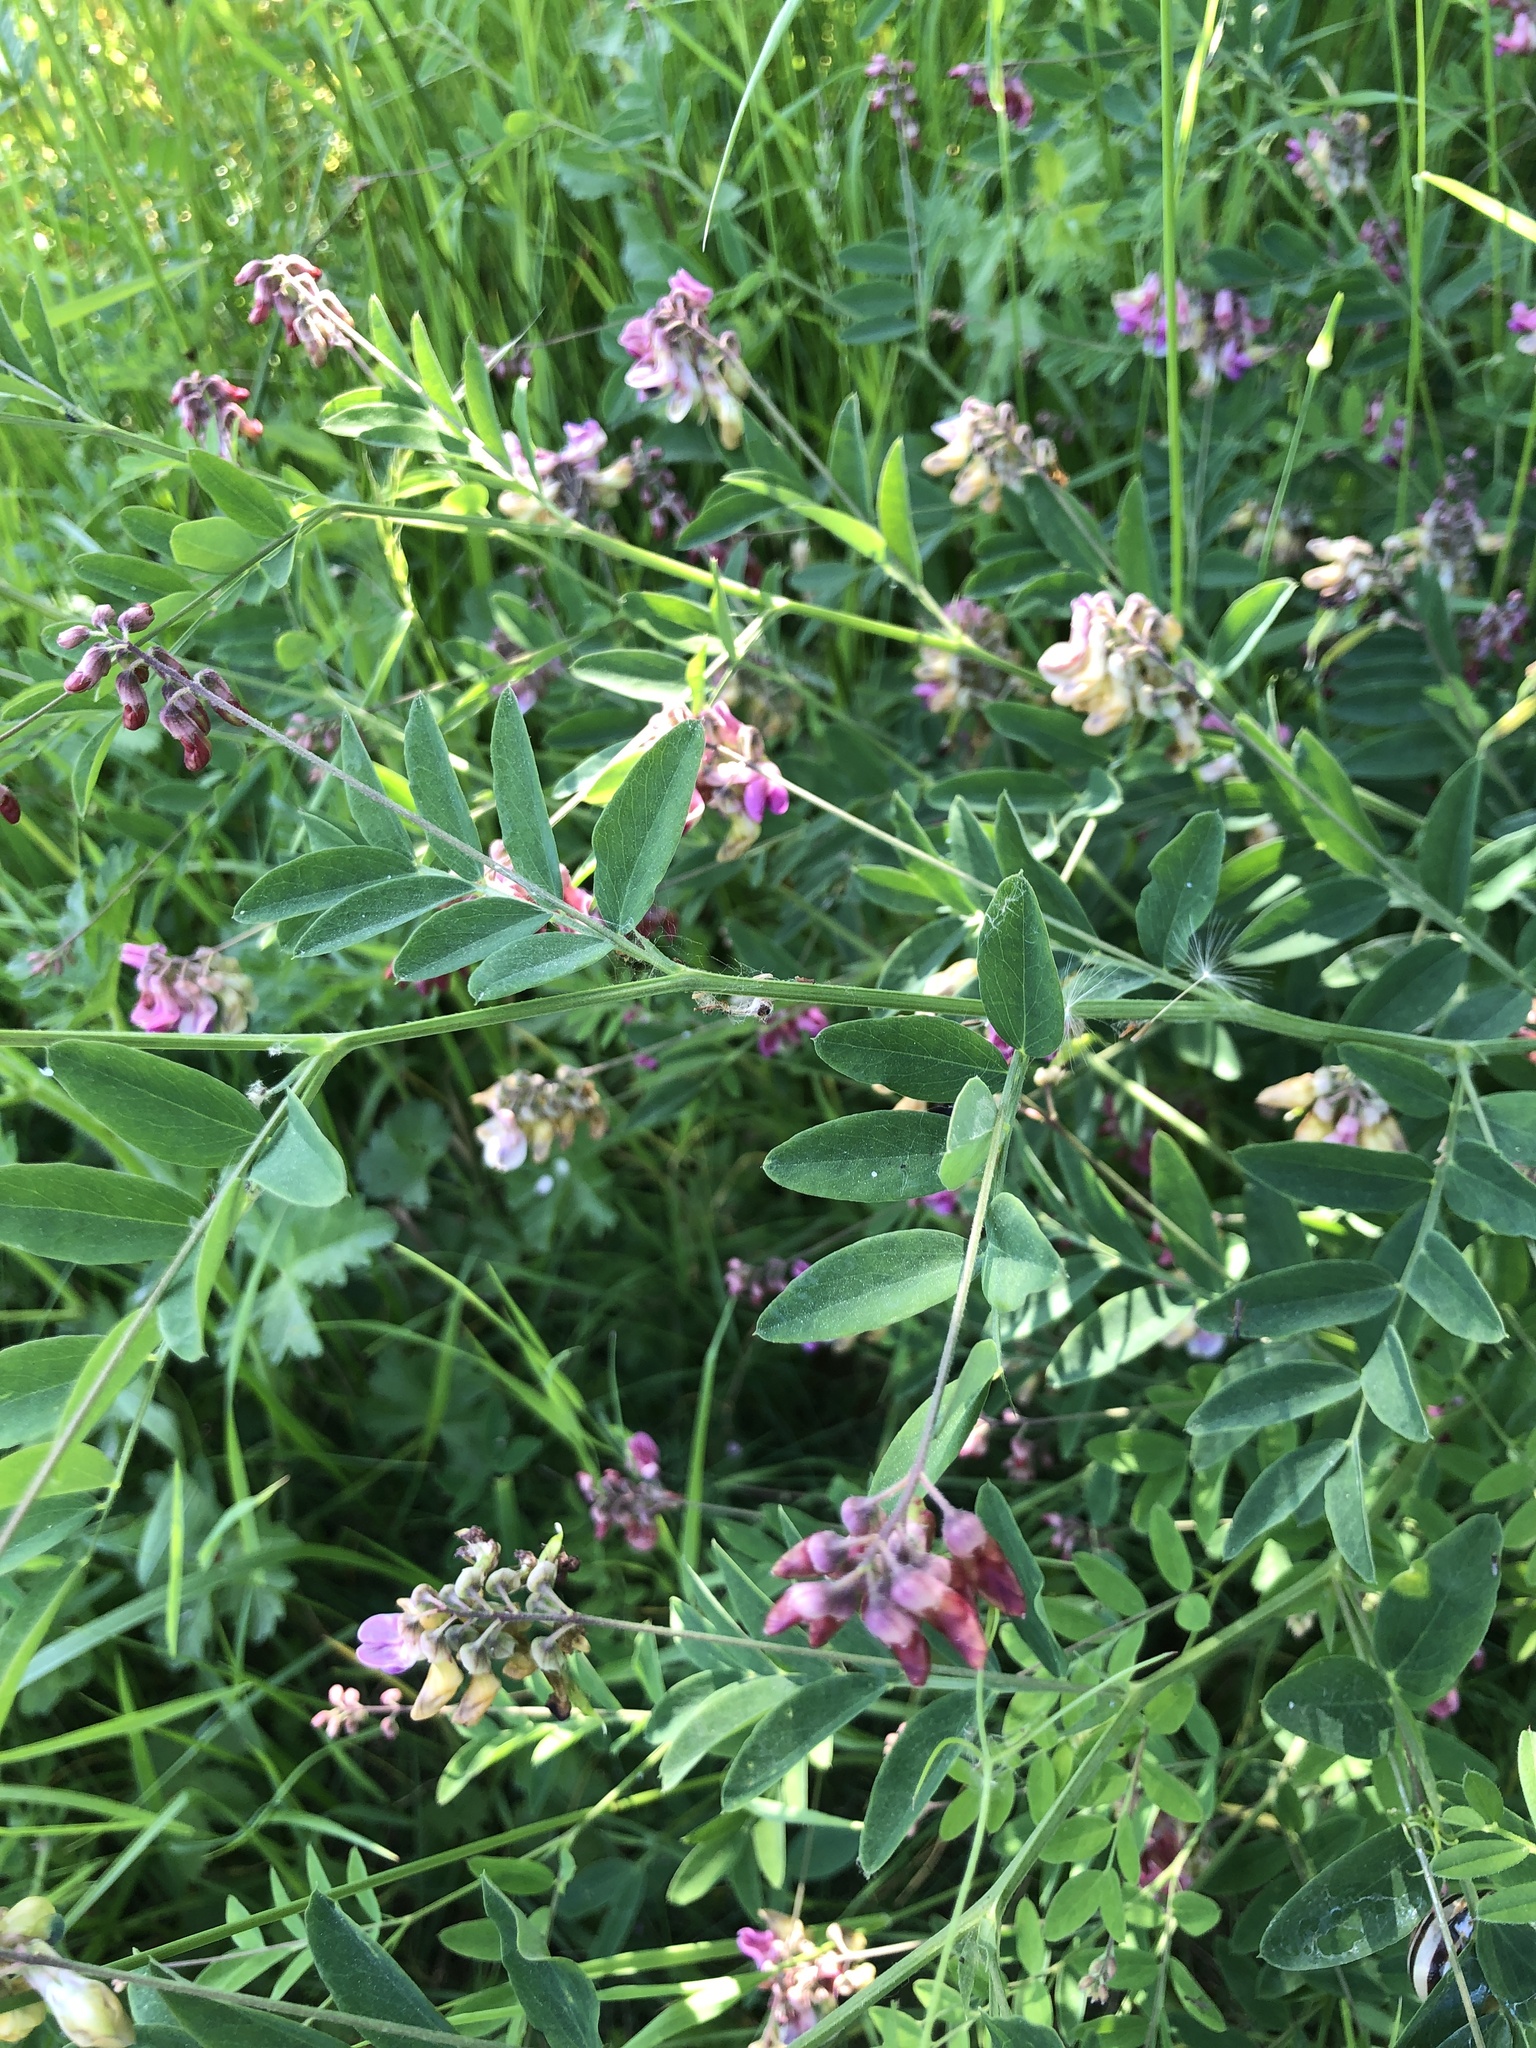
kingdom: Plantae
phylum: Tracheophyta
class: Magnoliopsida
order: Fabales
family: Fabaceae
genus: Lathyrus
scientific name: Lathyrus niger
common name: Black pea
